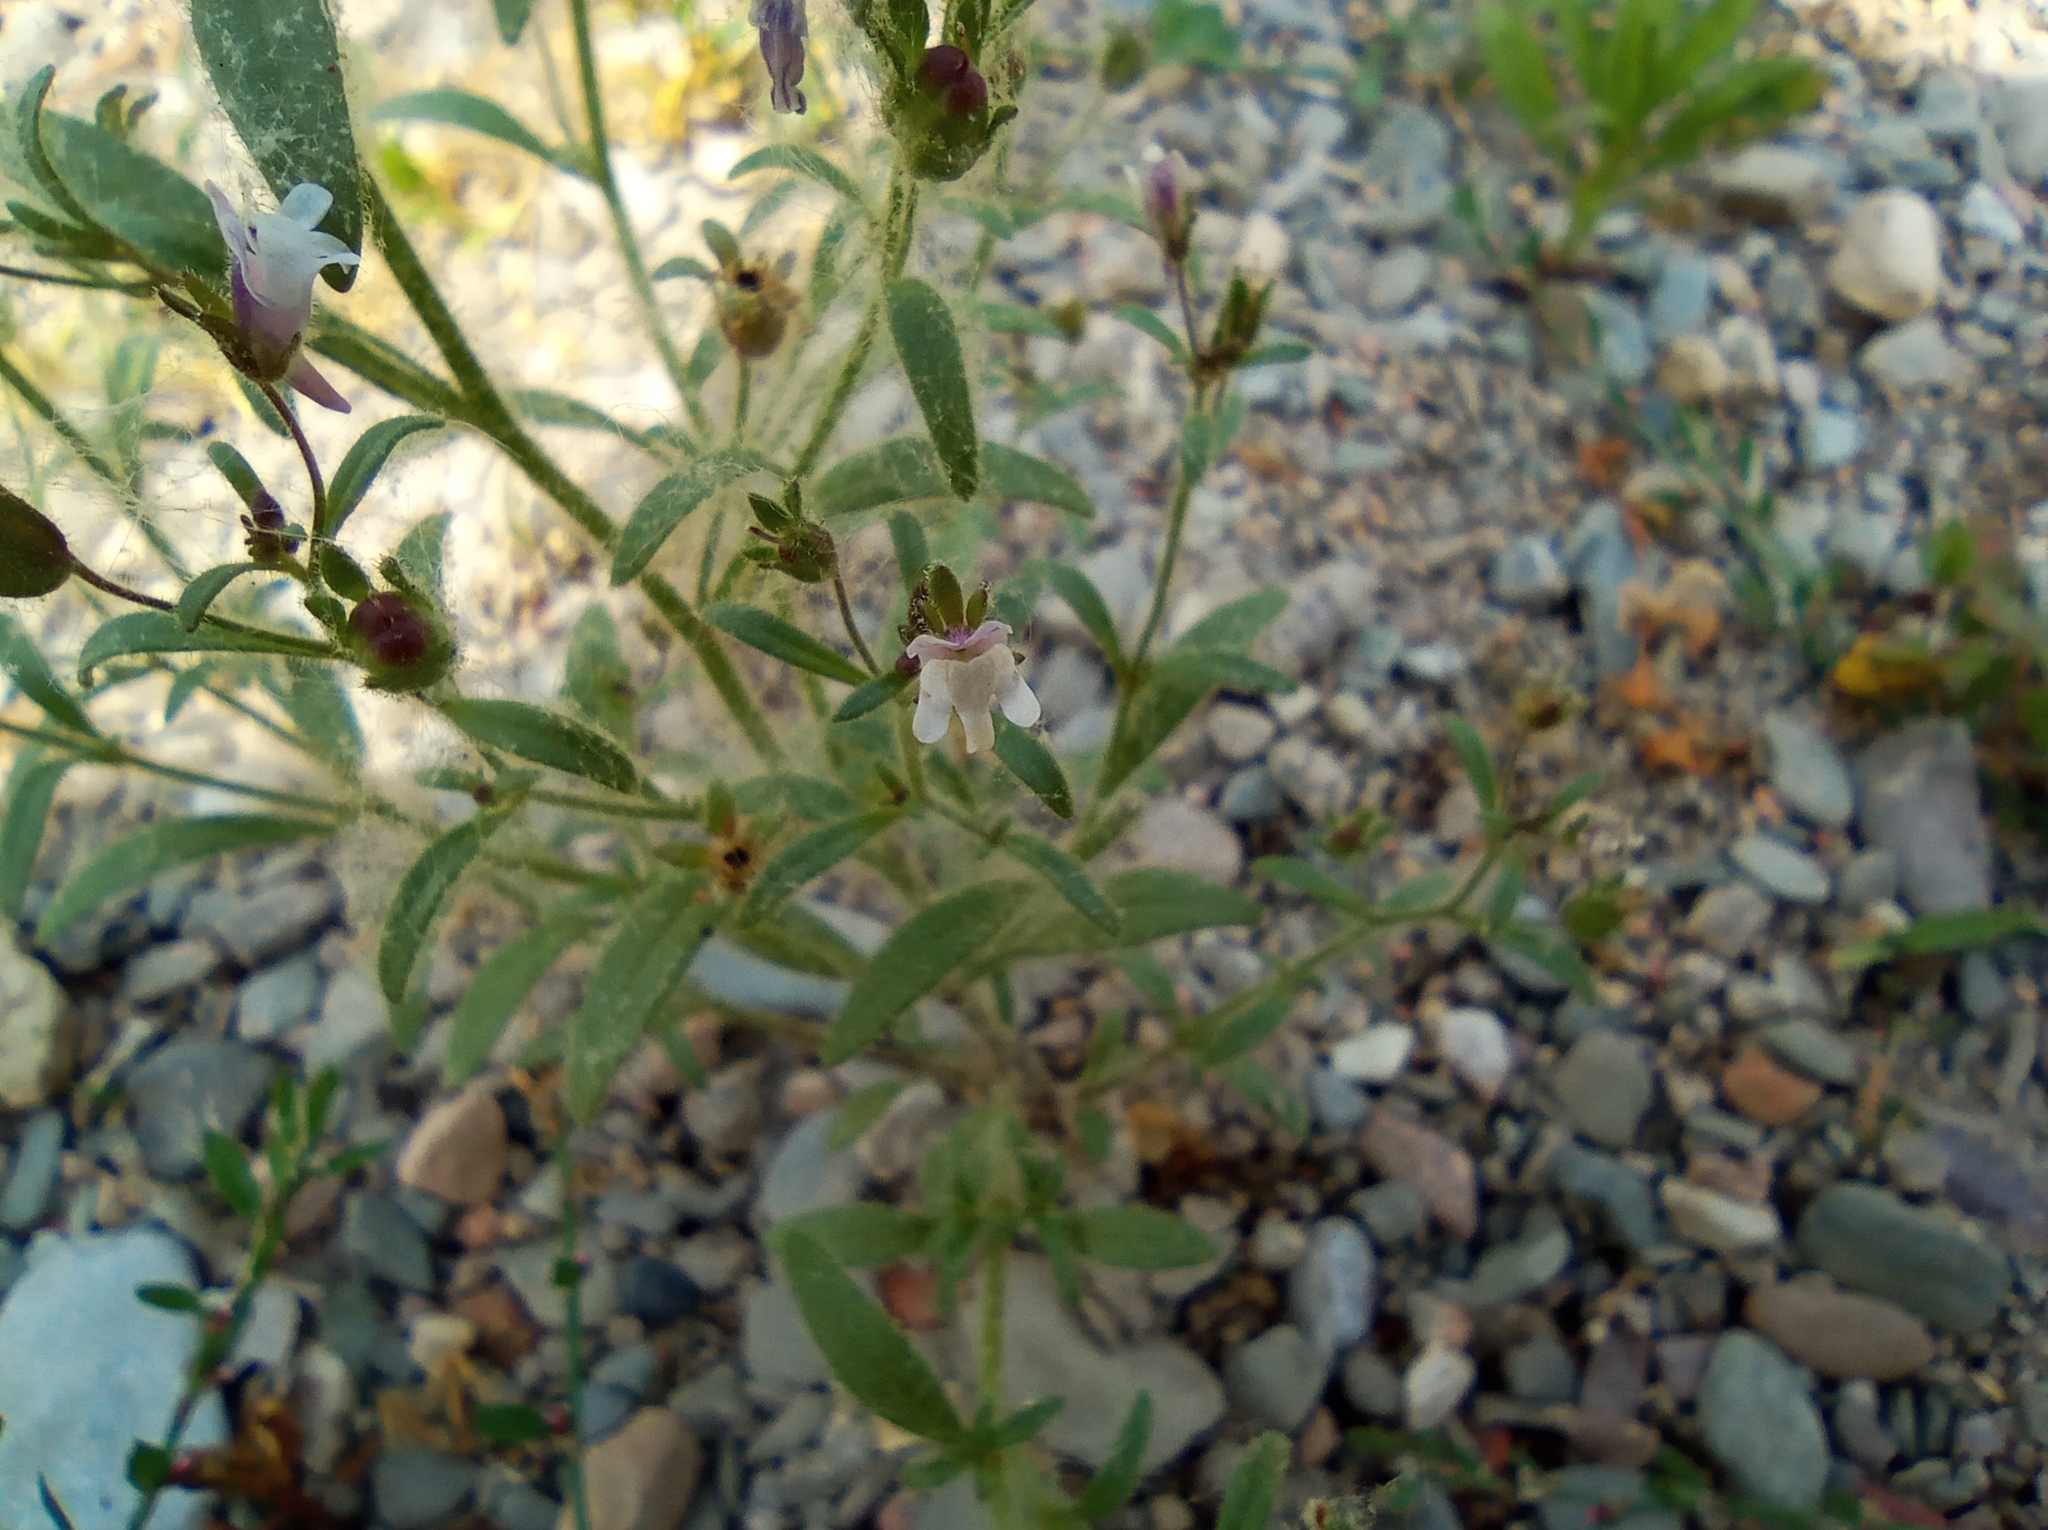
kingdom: Plantae
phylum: Tracheophyta
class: Magnoliopsida
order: Lamiales
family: Plantaginaceae
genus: Chaenorhinum
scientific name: Chaenorhinum minus
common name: Dwarf snapdragon
